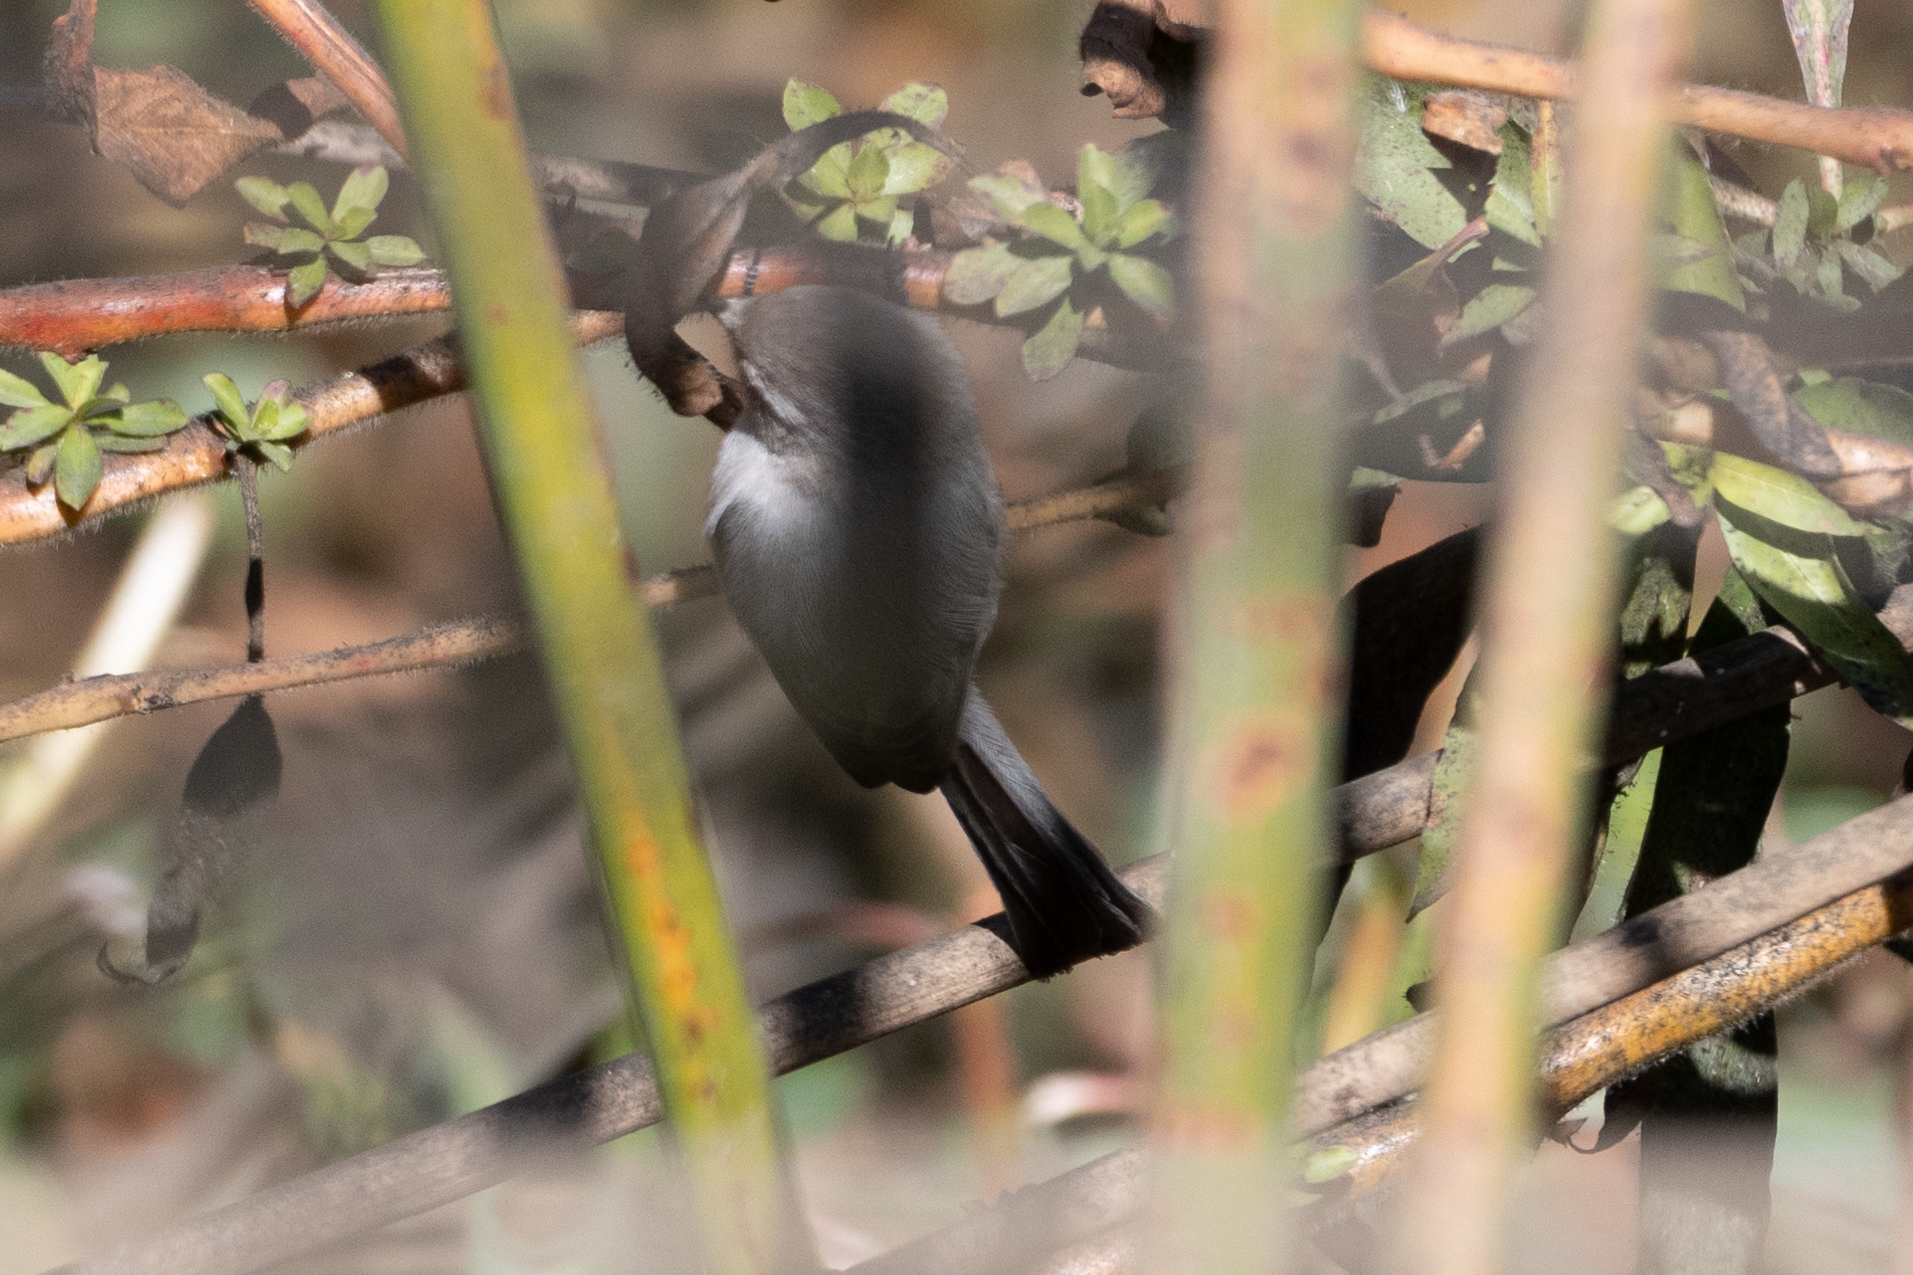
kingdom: Animalia
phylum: Chordata
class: Aves
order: Passeriformes
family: Aegithalidae
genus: Psaltriparus
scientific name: Psaltriparus minimus
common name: American bushtit
